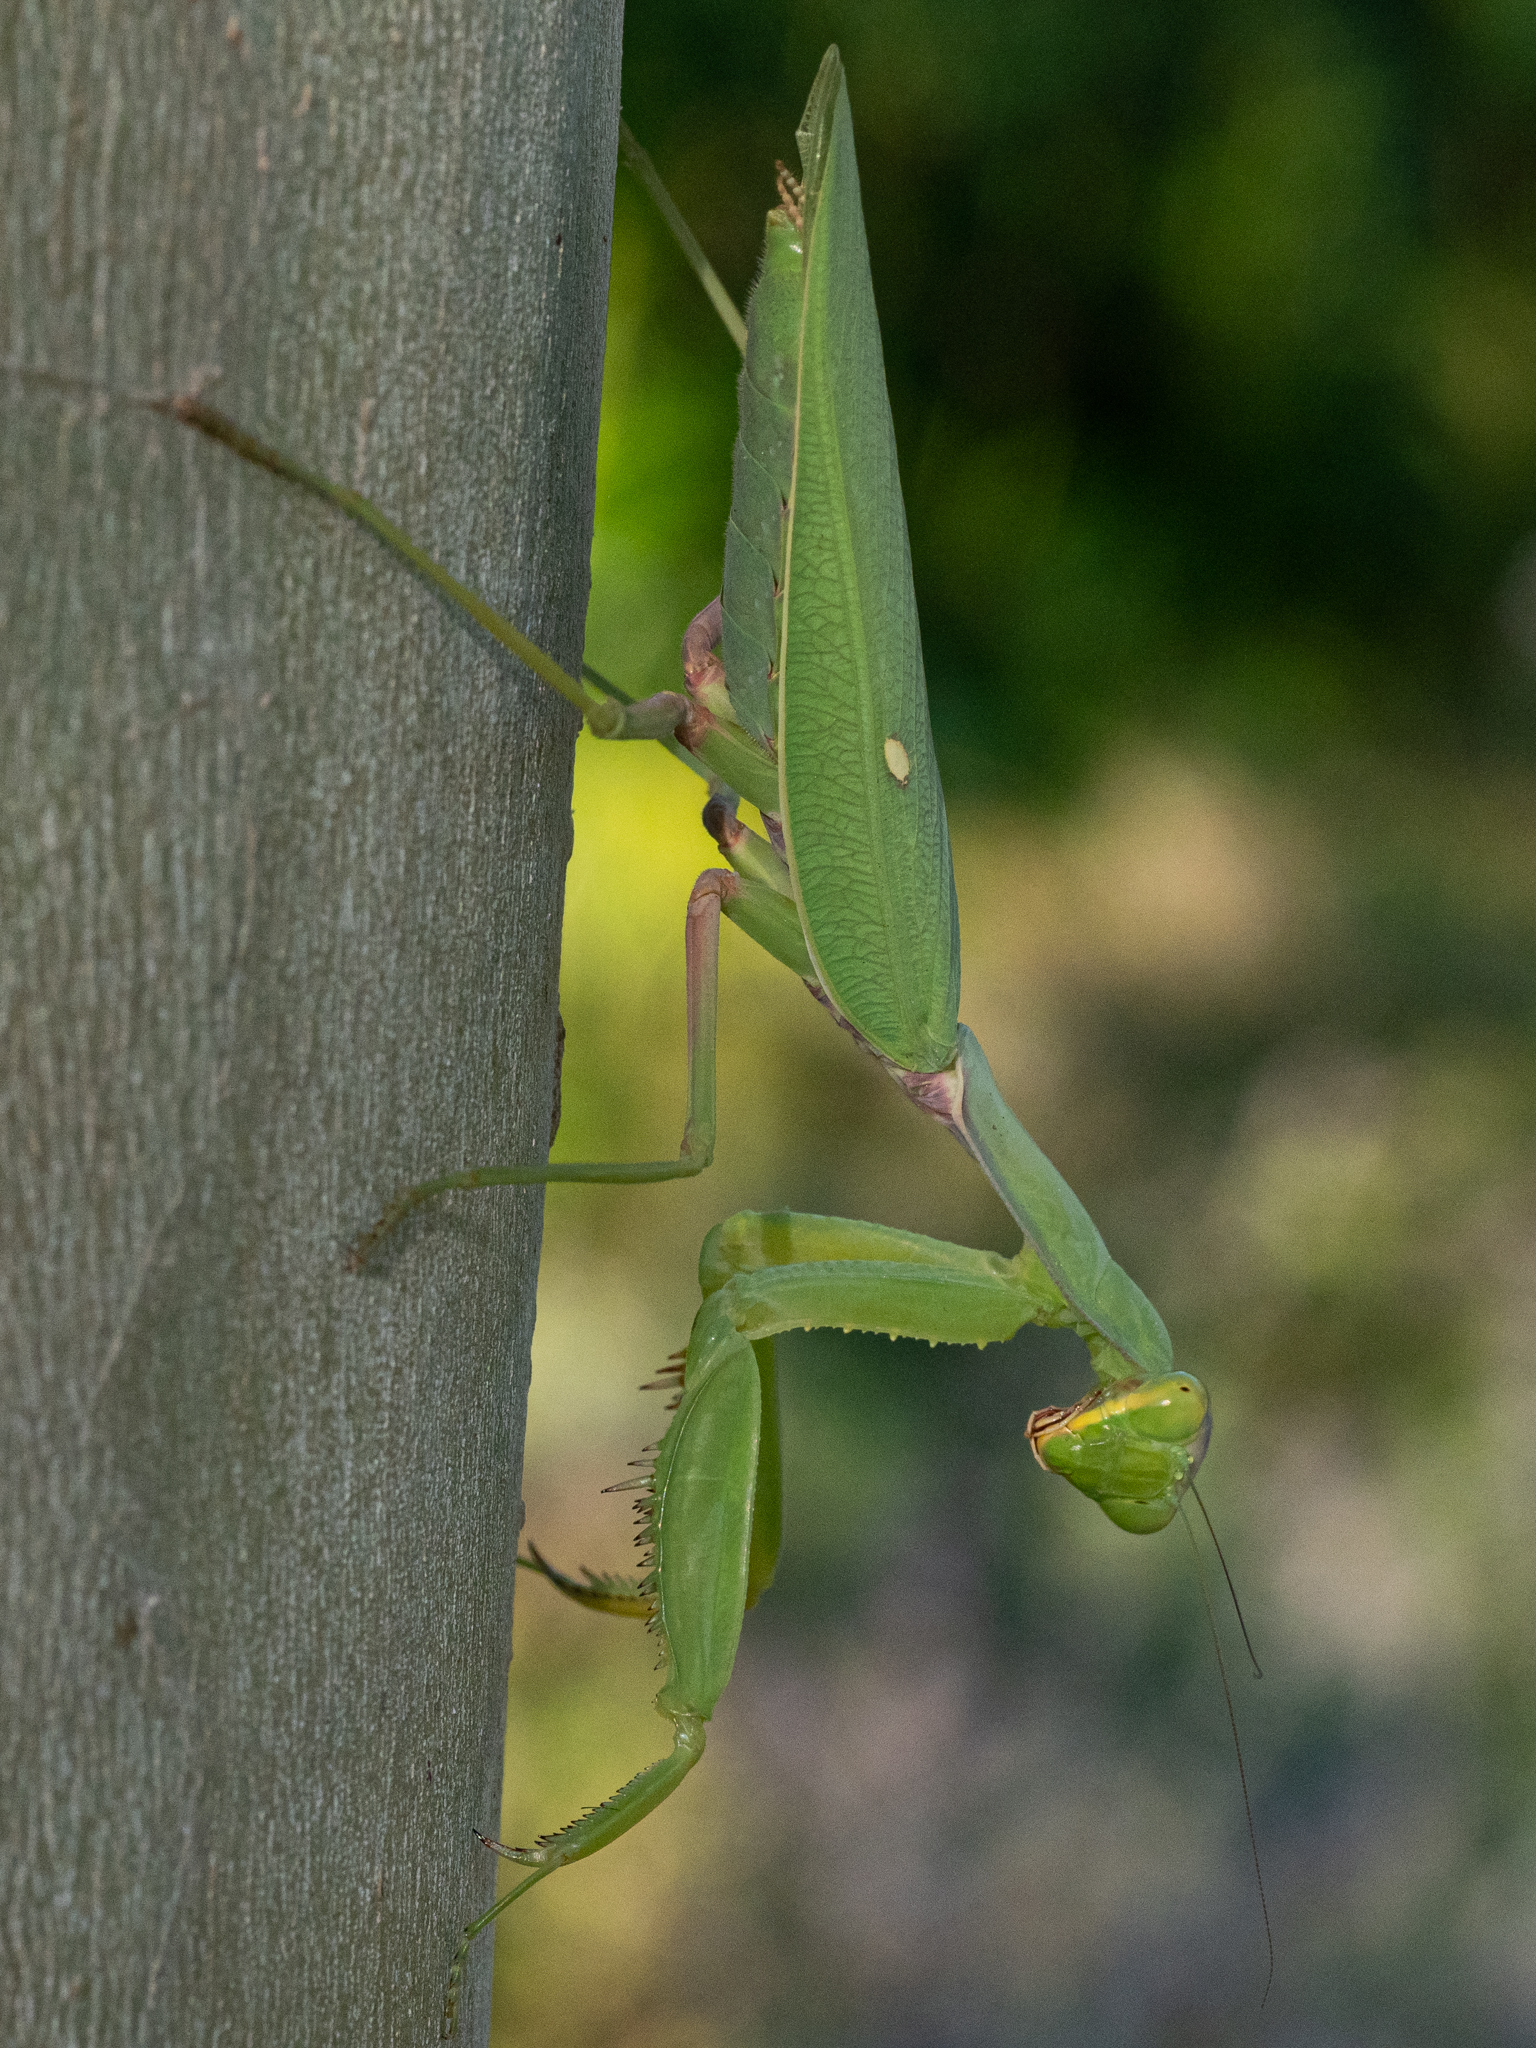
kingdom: Animalia
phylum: Arthropoda
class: Insecta
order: Mantodea
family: Mantidae
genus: Hierodula
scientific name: Hierodula transcaucasica
